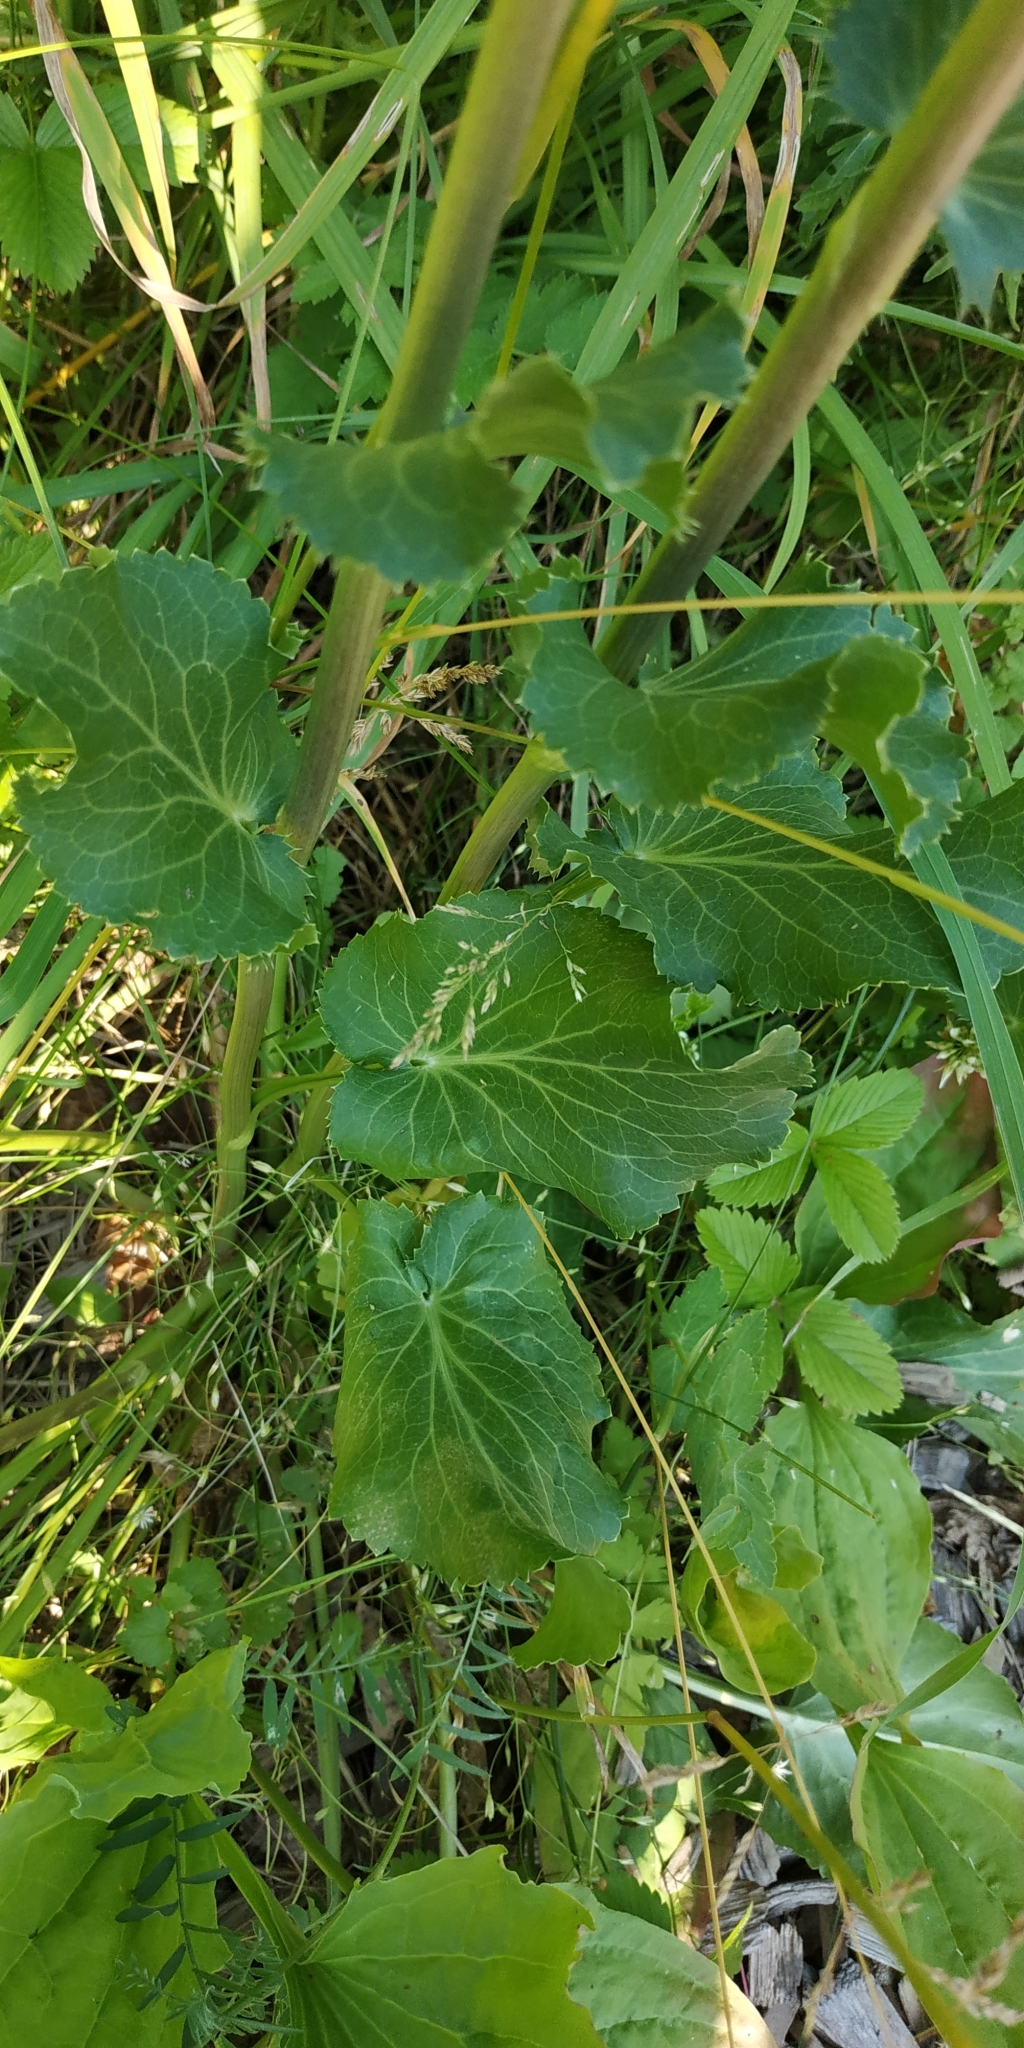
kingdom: Plantae
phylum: Tracheophyta
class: Magnoliopsida
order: Apiales
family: Apiaceae
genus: Eryngium
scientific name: Eryngium planum
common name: Blue eryngo
